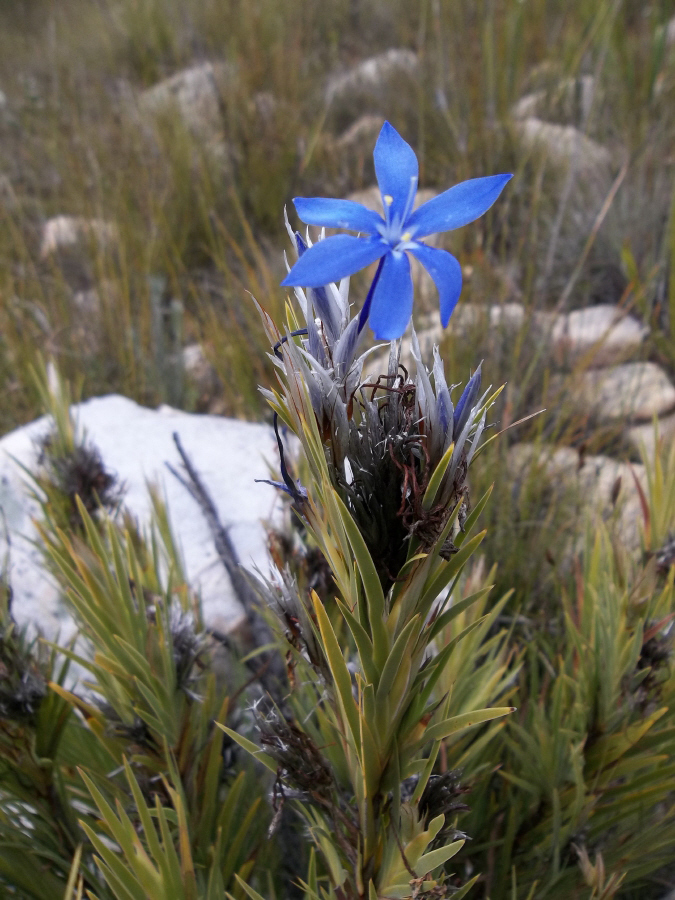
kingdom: Plantae
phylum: Tracheophyta
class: Liliopsida
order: Asparagales
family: Iridaceae
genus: Nivenia
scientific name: Nivenia inaequalis
